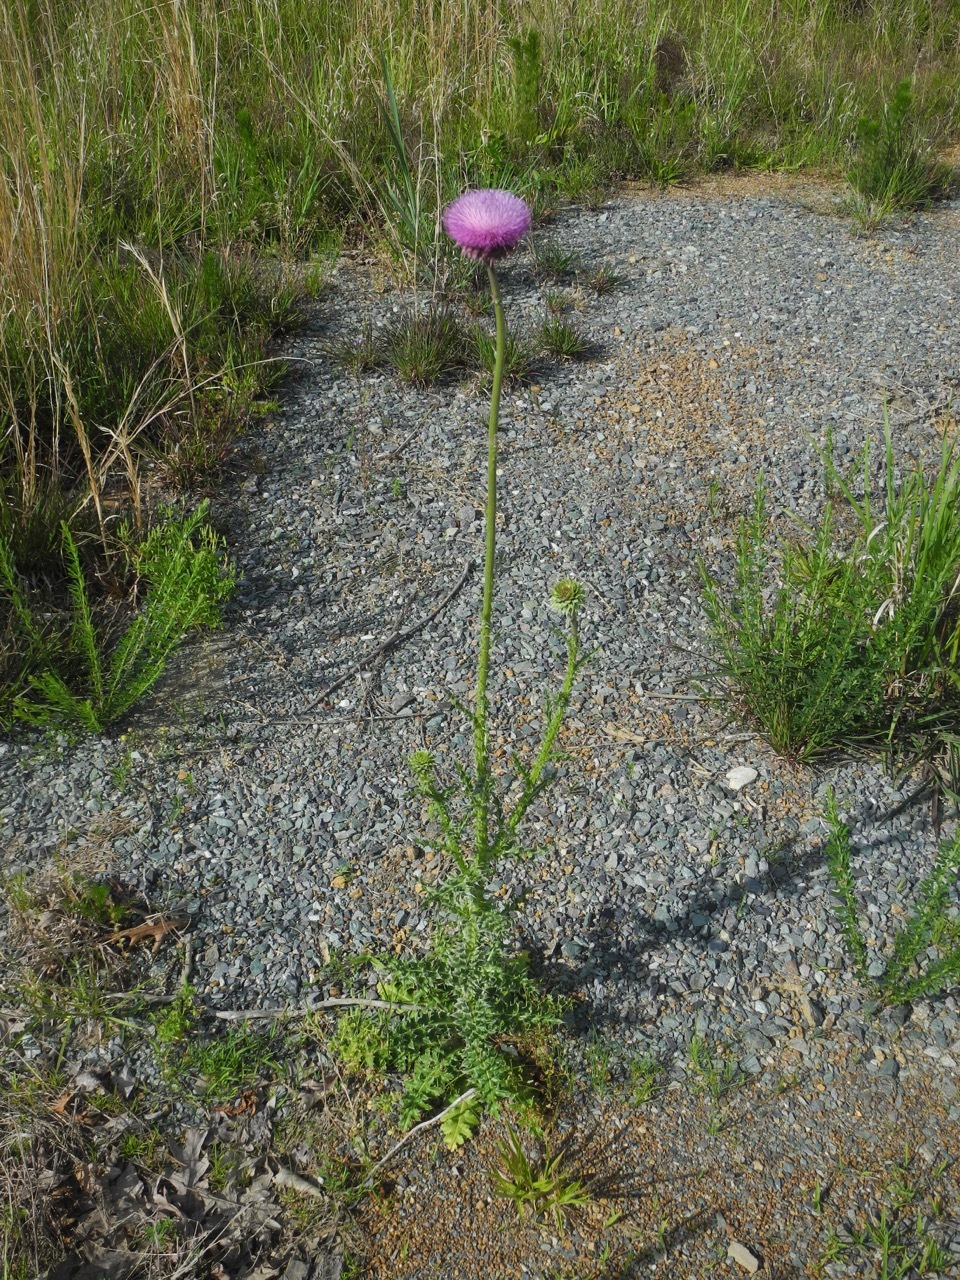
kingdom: Plantae
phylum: Tracheophyta
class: Magnoliopsida
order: Asterales
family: Asteraceae
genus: Carduus
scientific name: Carduus nutans
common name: Musk thistle
